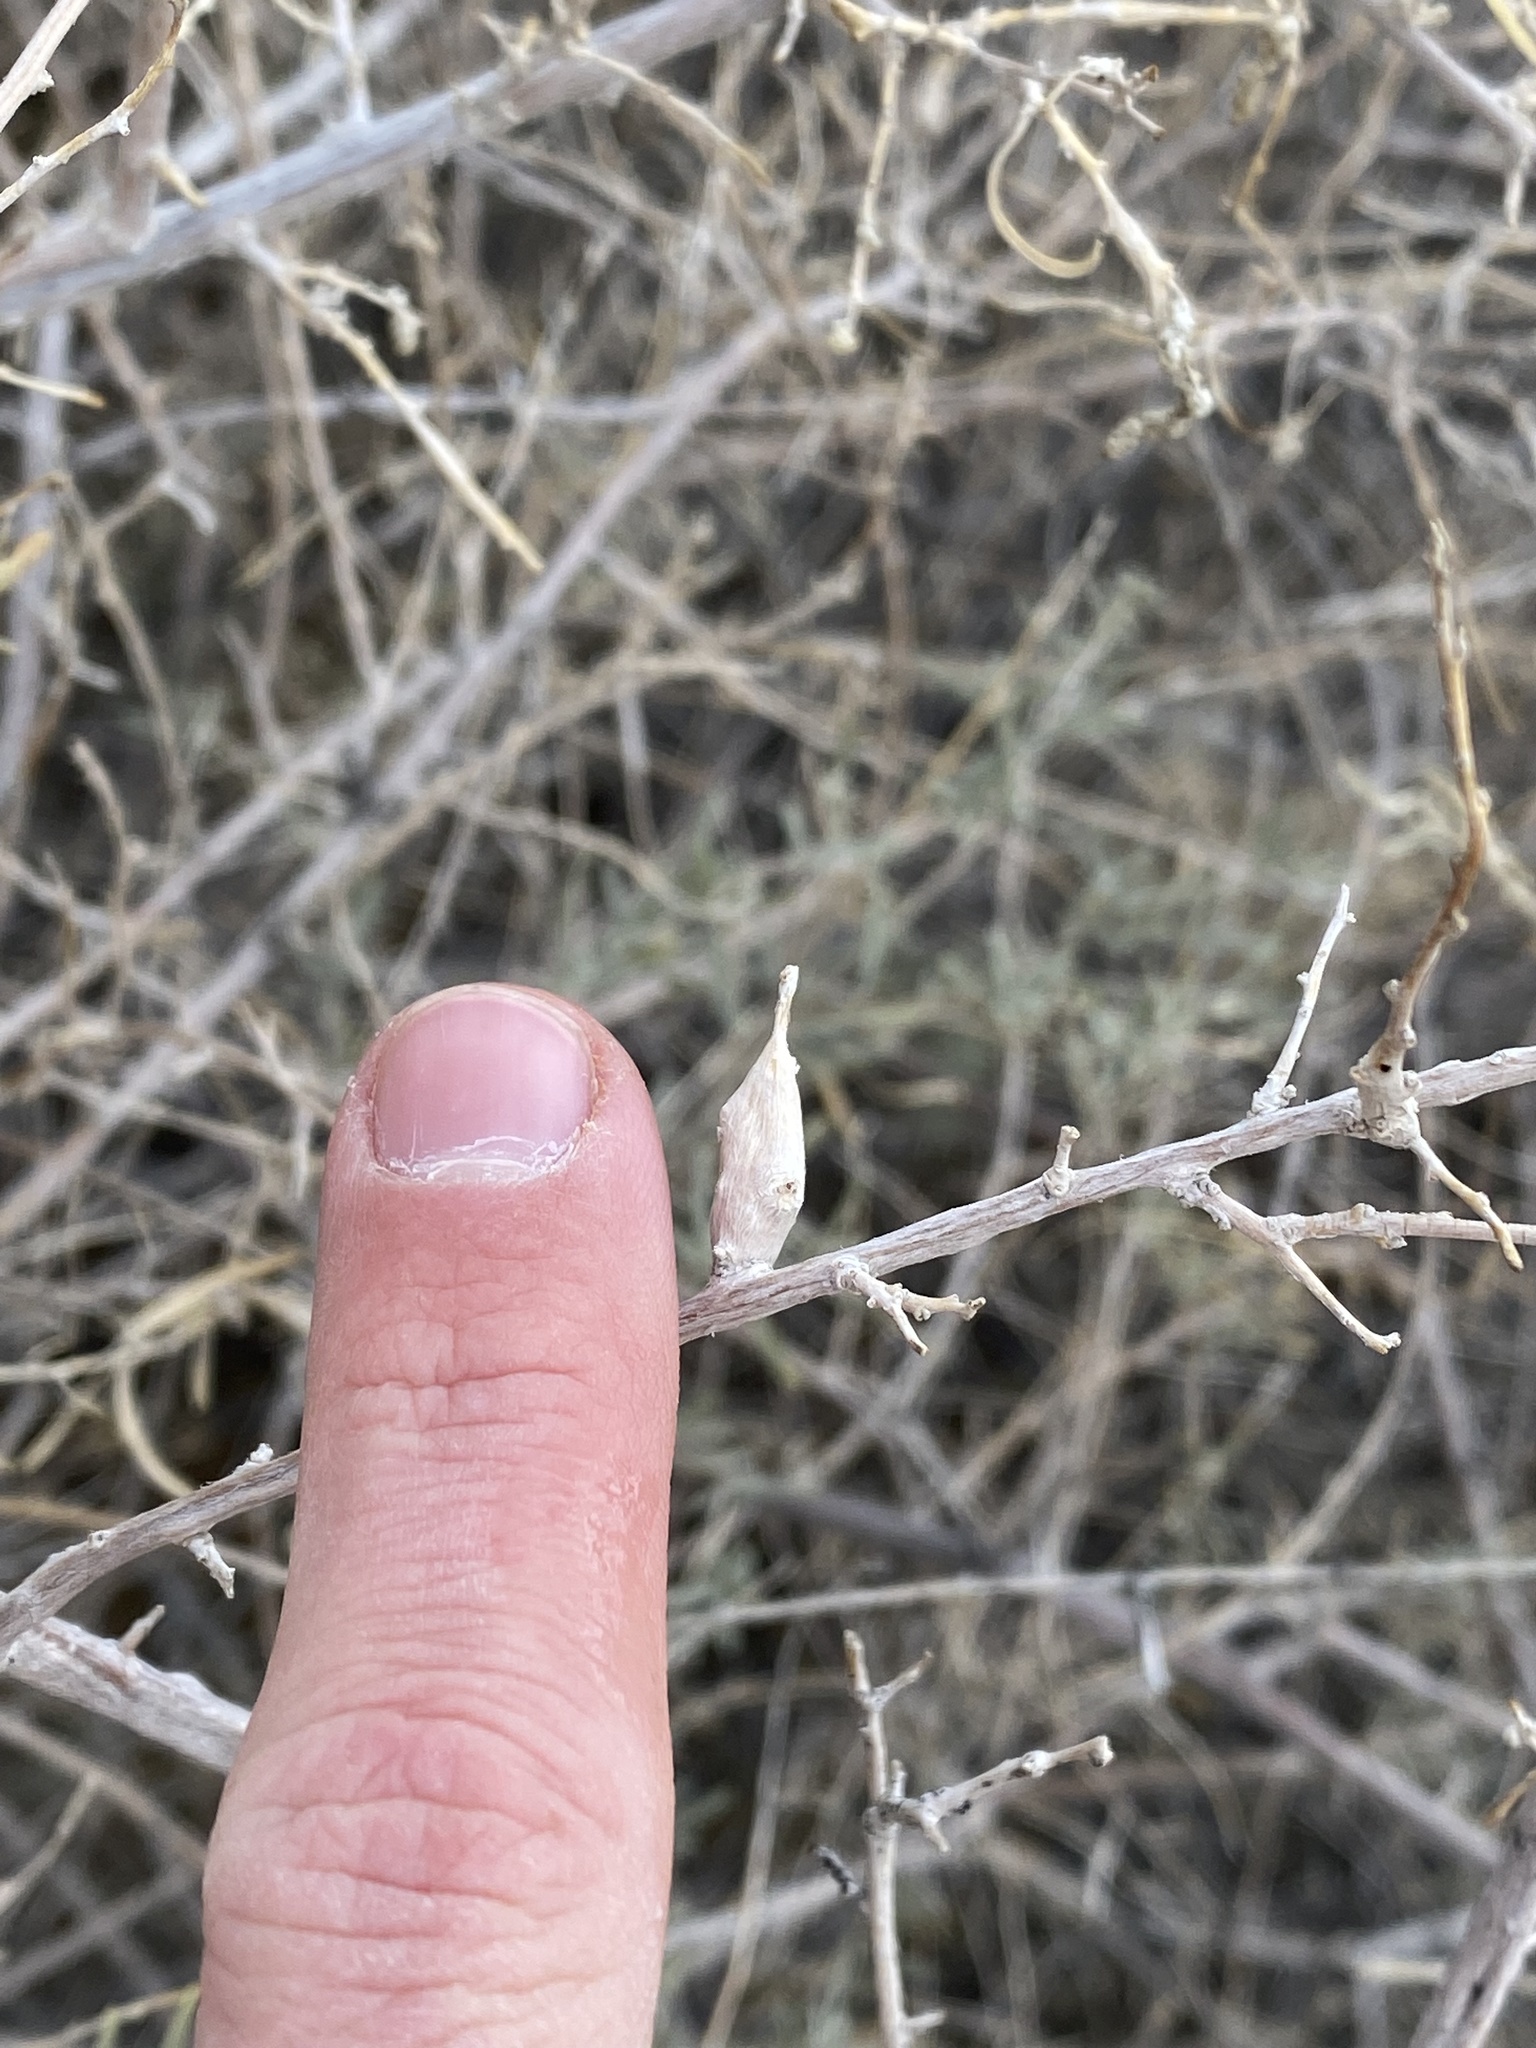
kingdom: Animalia
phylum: Arthropoda
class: Insecta
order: Diptera
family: Cecidomyiidae
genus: Neolasioptera
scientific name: Neolasioptera willistoni
